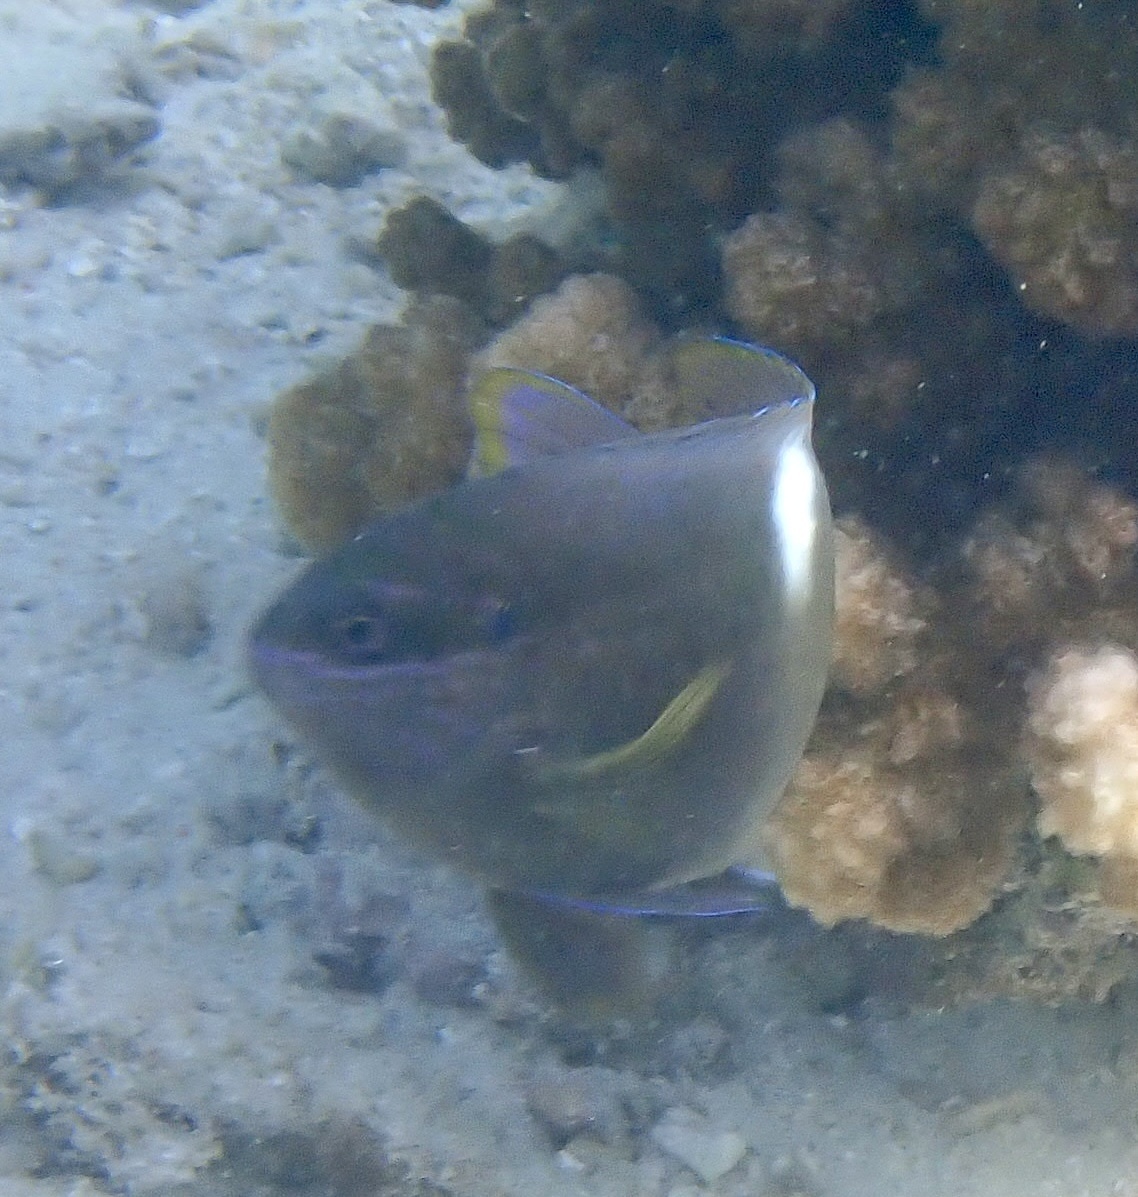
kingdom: Animalia
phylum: Chordata
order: Perciformes
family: Pomacentridae
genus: Dischistodus
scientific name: Dischistodus pseudochrysopoecilus
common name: Monarch damsel
